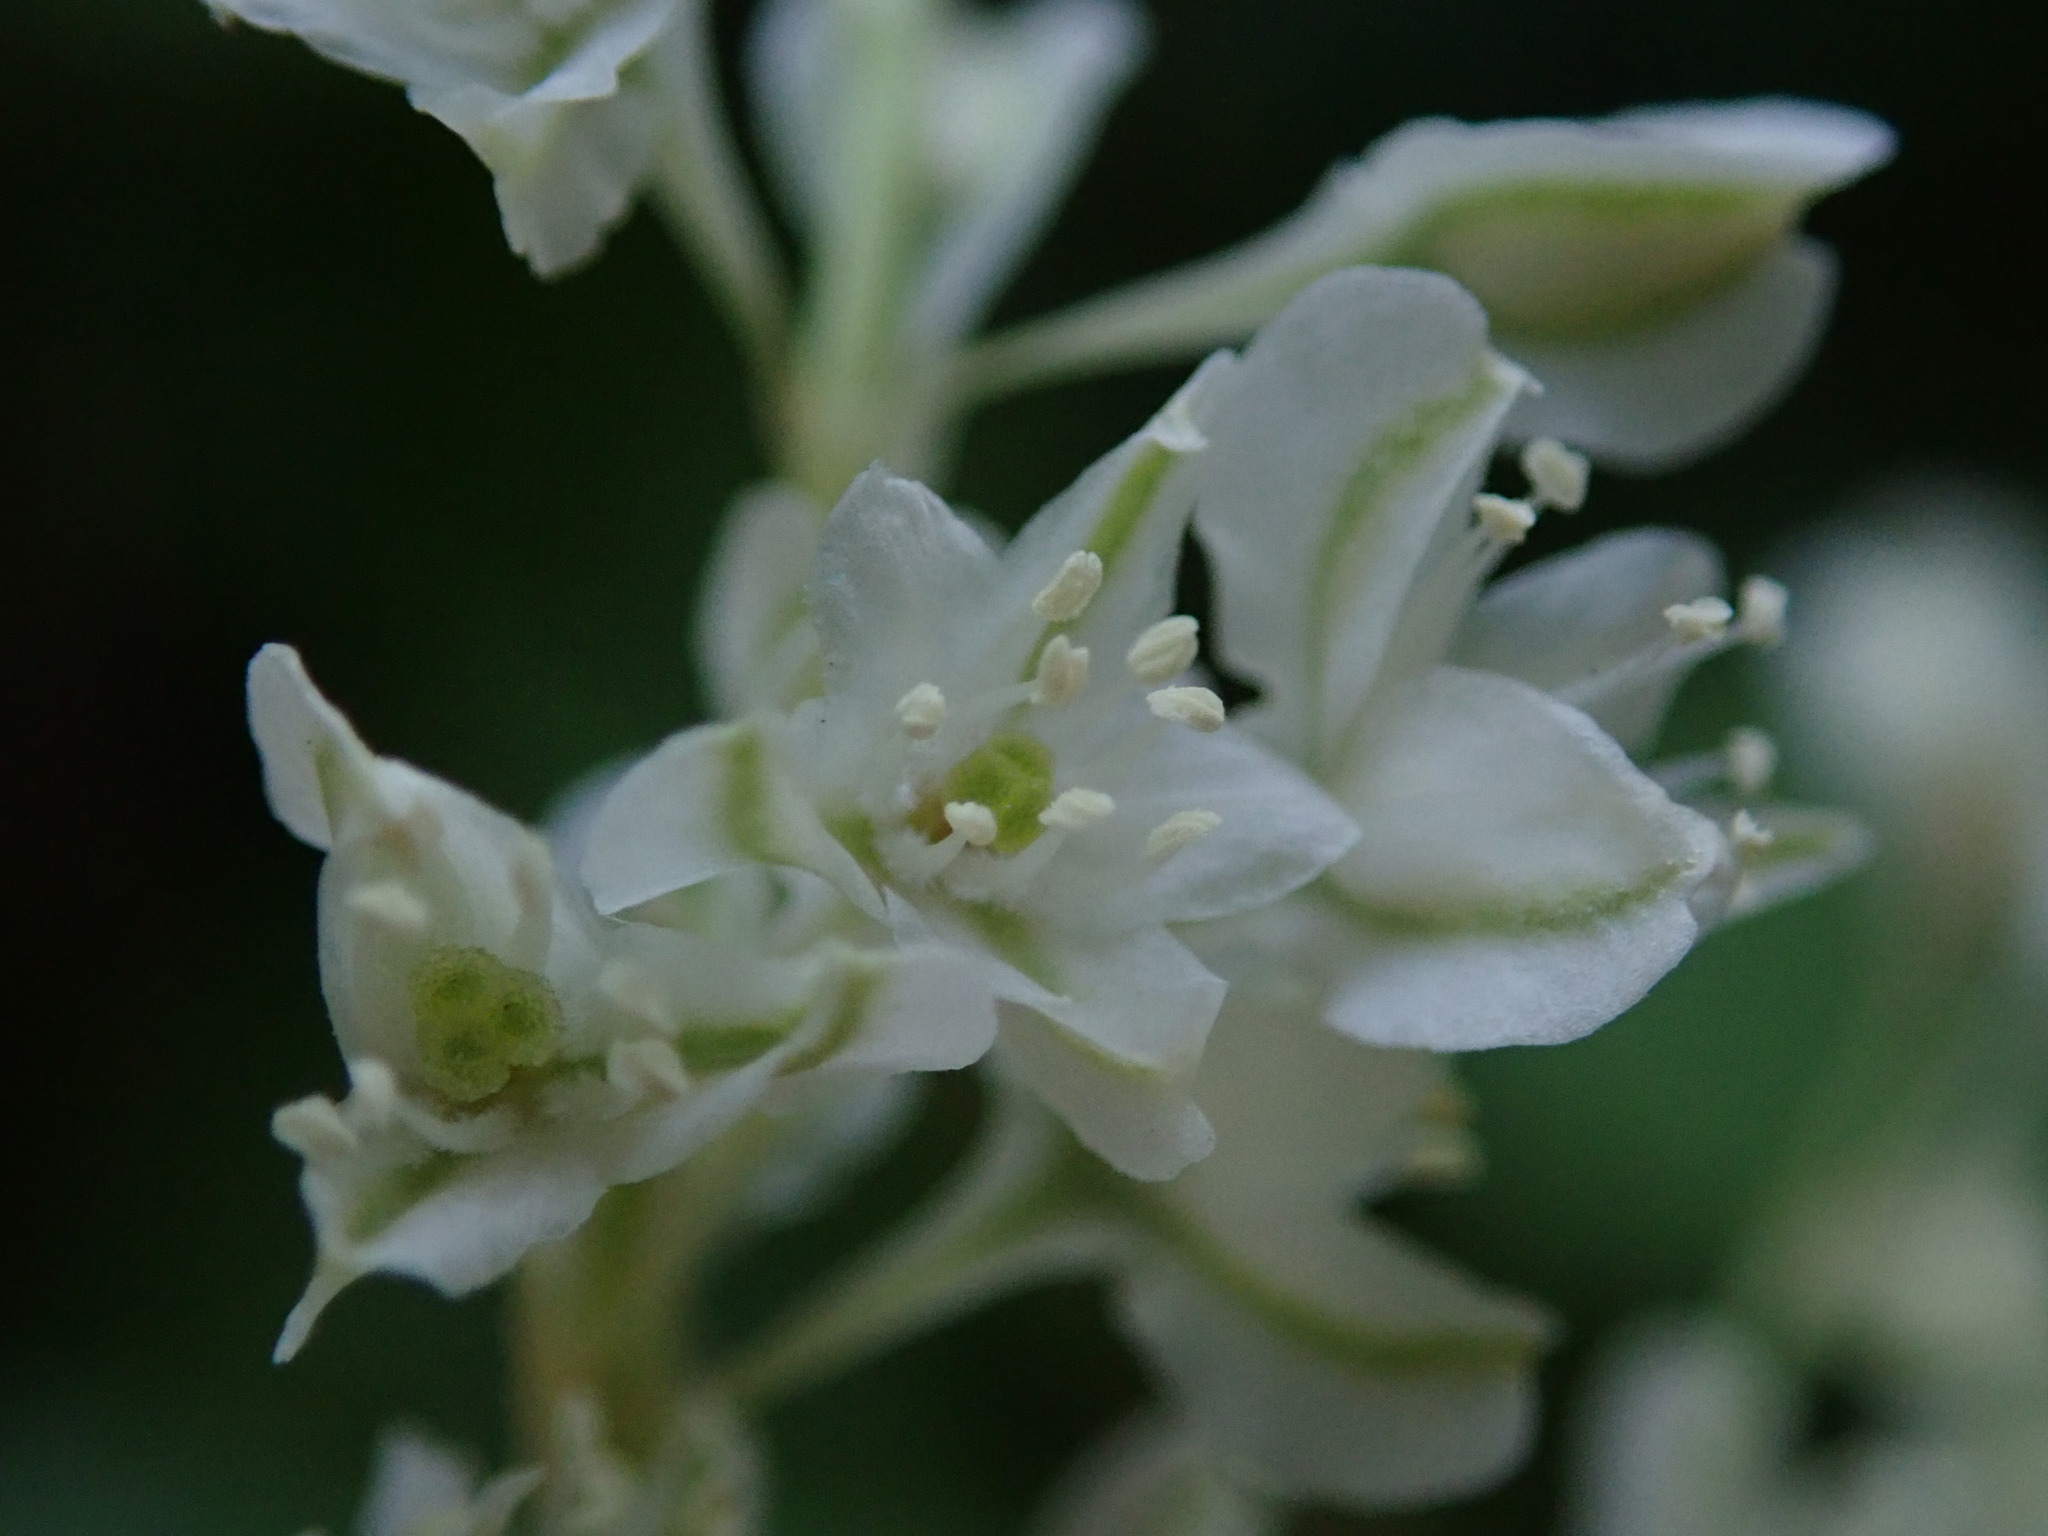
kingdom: Plantae
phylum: Tracheophyta
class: Magnoliopsida
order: Caryophyllales
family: Polygonaceae
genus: Fallopia
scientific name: Fallopia baldschuanica
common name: Russian-vine
